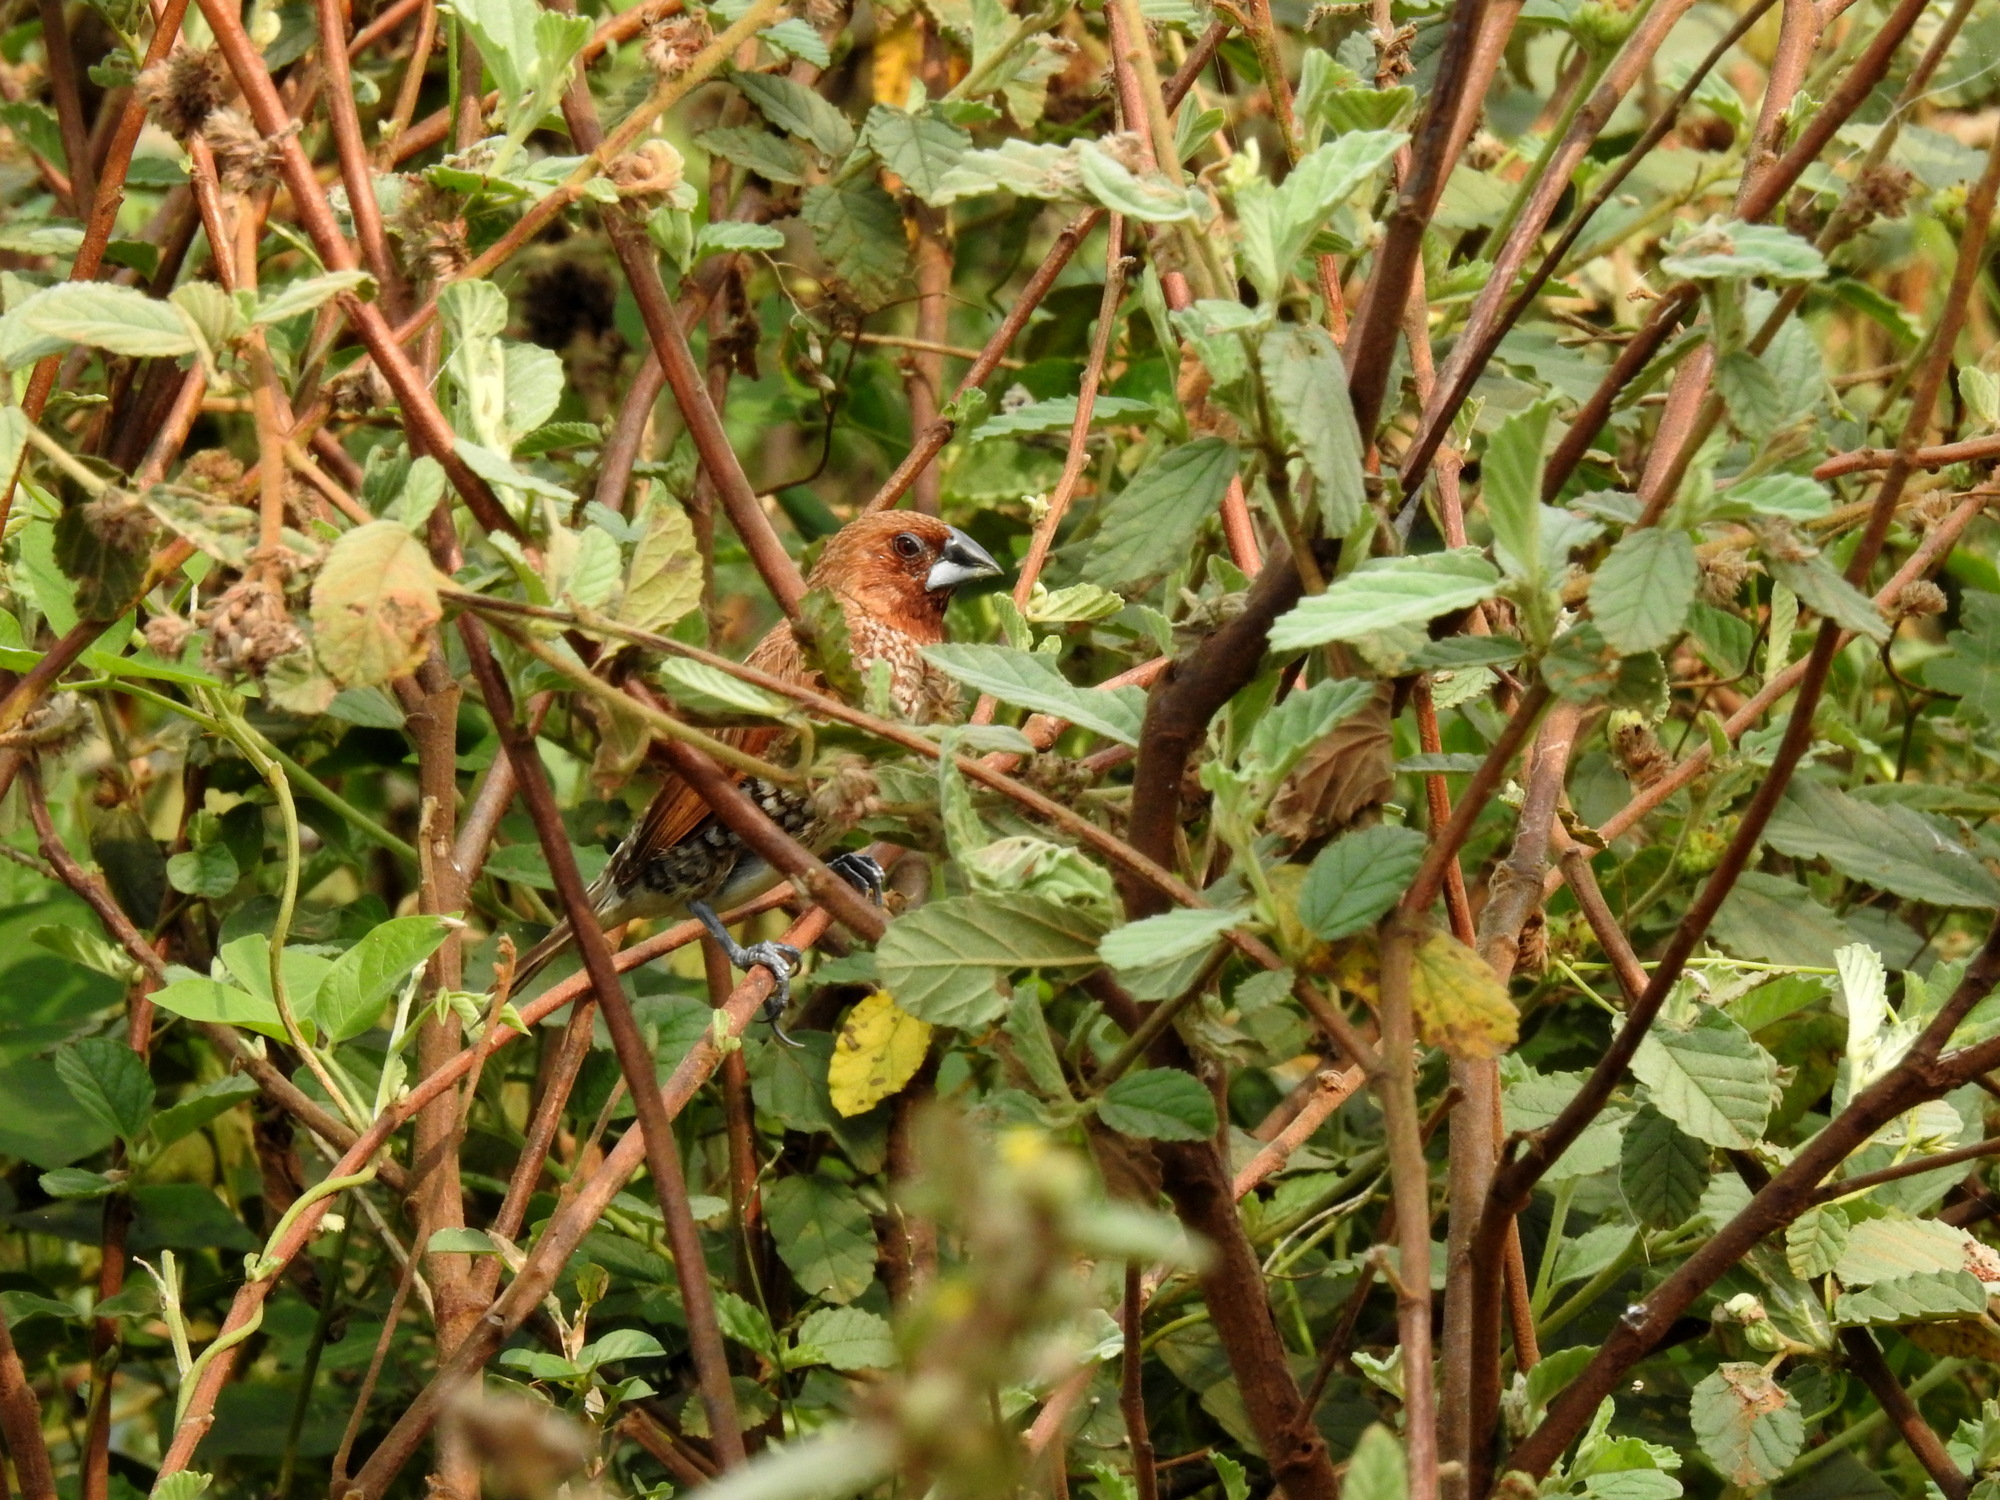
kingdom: Animalia
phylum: Chordata
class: Aves
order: Passeriformes
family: Estrildidae
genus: Lonchura
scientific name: Lonchura punctulata
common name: Scaly-breasted munia
